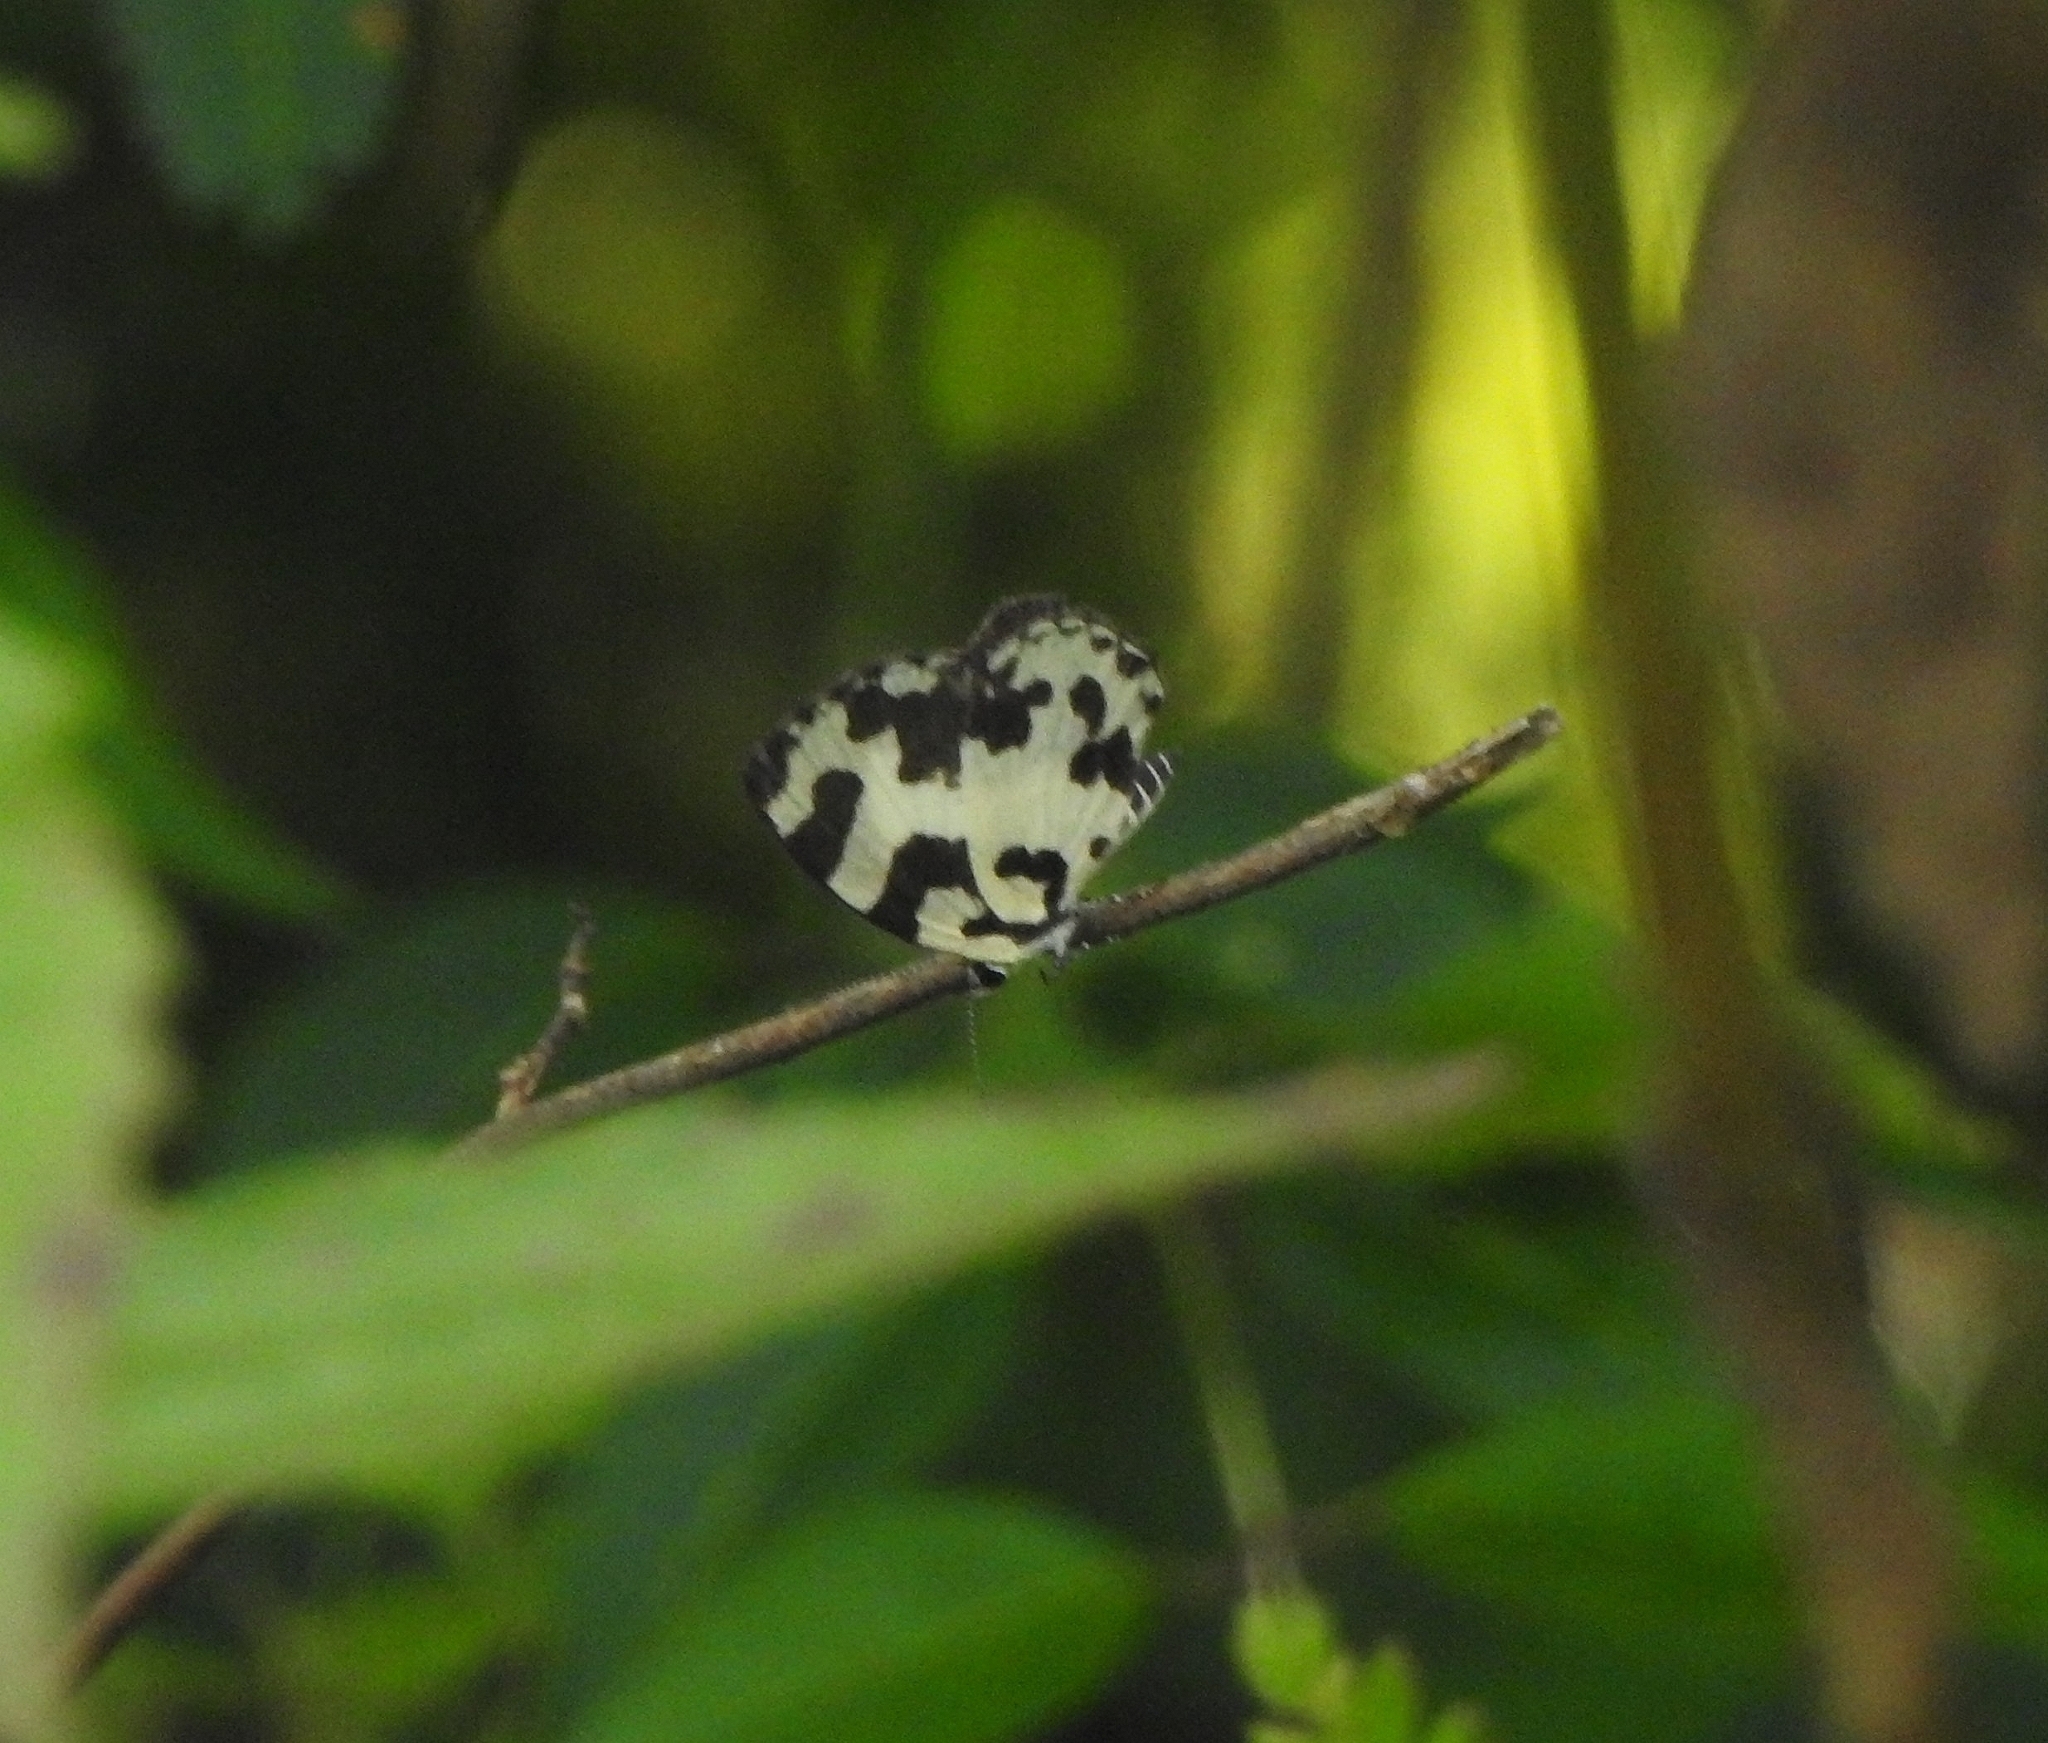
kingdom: Animalia
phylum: Arthropoda
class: Insecta
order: Lepidoptera
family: Lycaenidae
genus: Caleta
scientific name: Caleta decidia
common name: Angled pierrot
